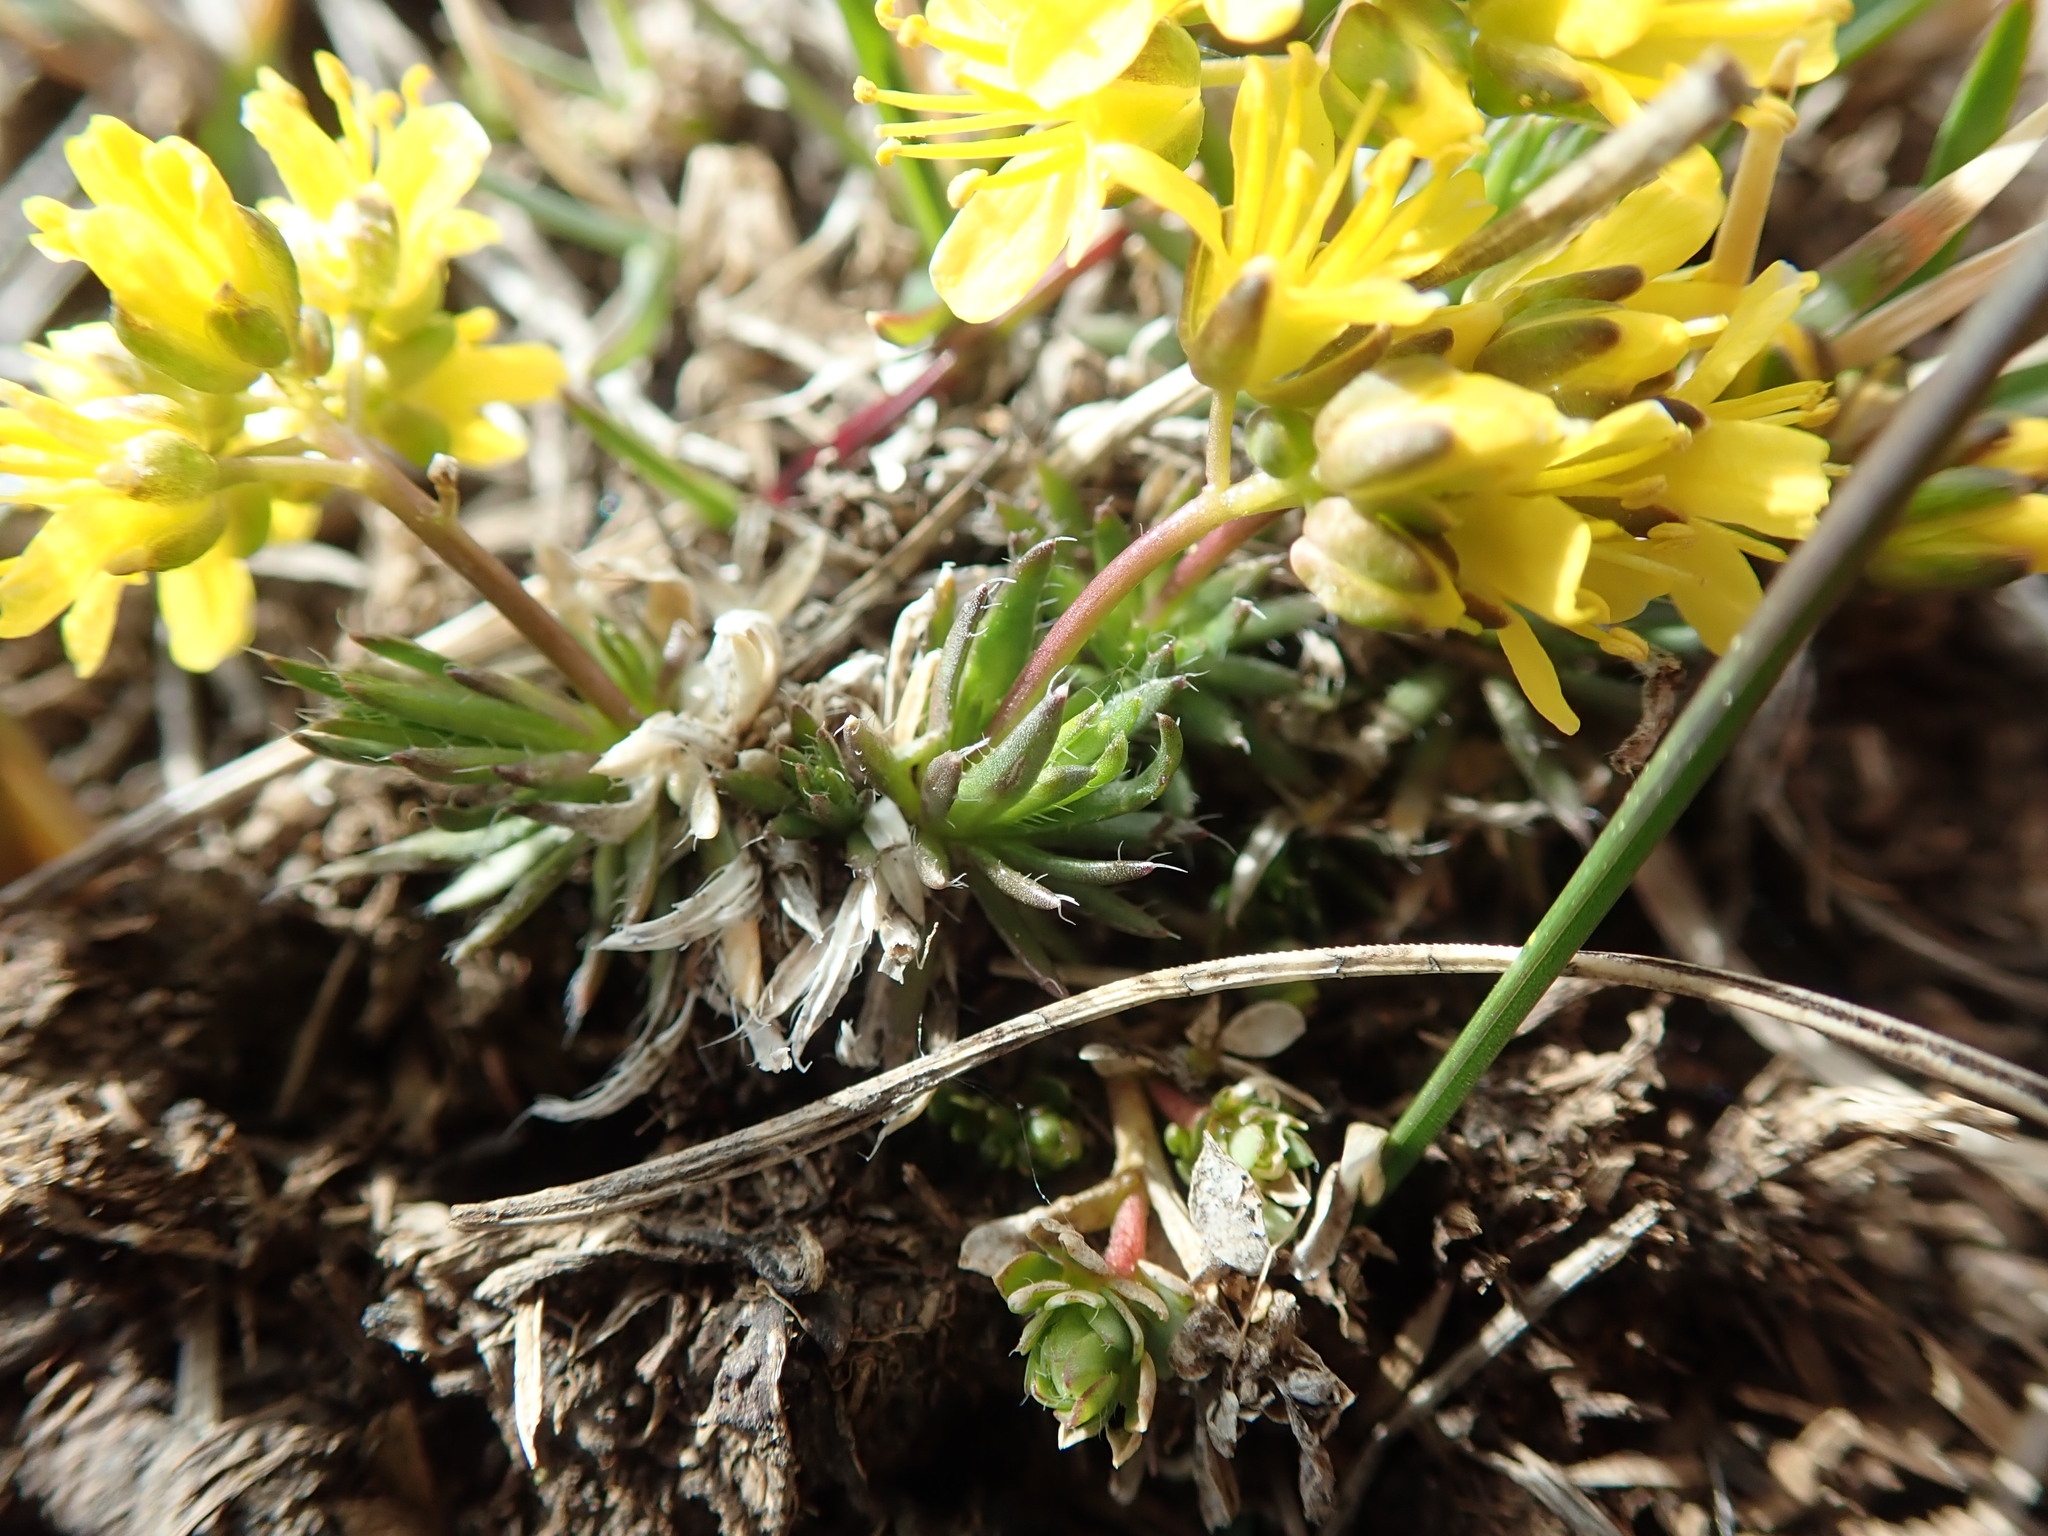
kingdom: Plantae
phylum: Tracheophyta
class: Magnoliopsida
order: Brassicales
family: Brassicaceae
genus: Draba
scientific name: Draba aizoides
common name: Yellow whitlowgrass
